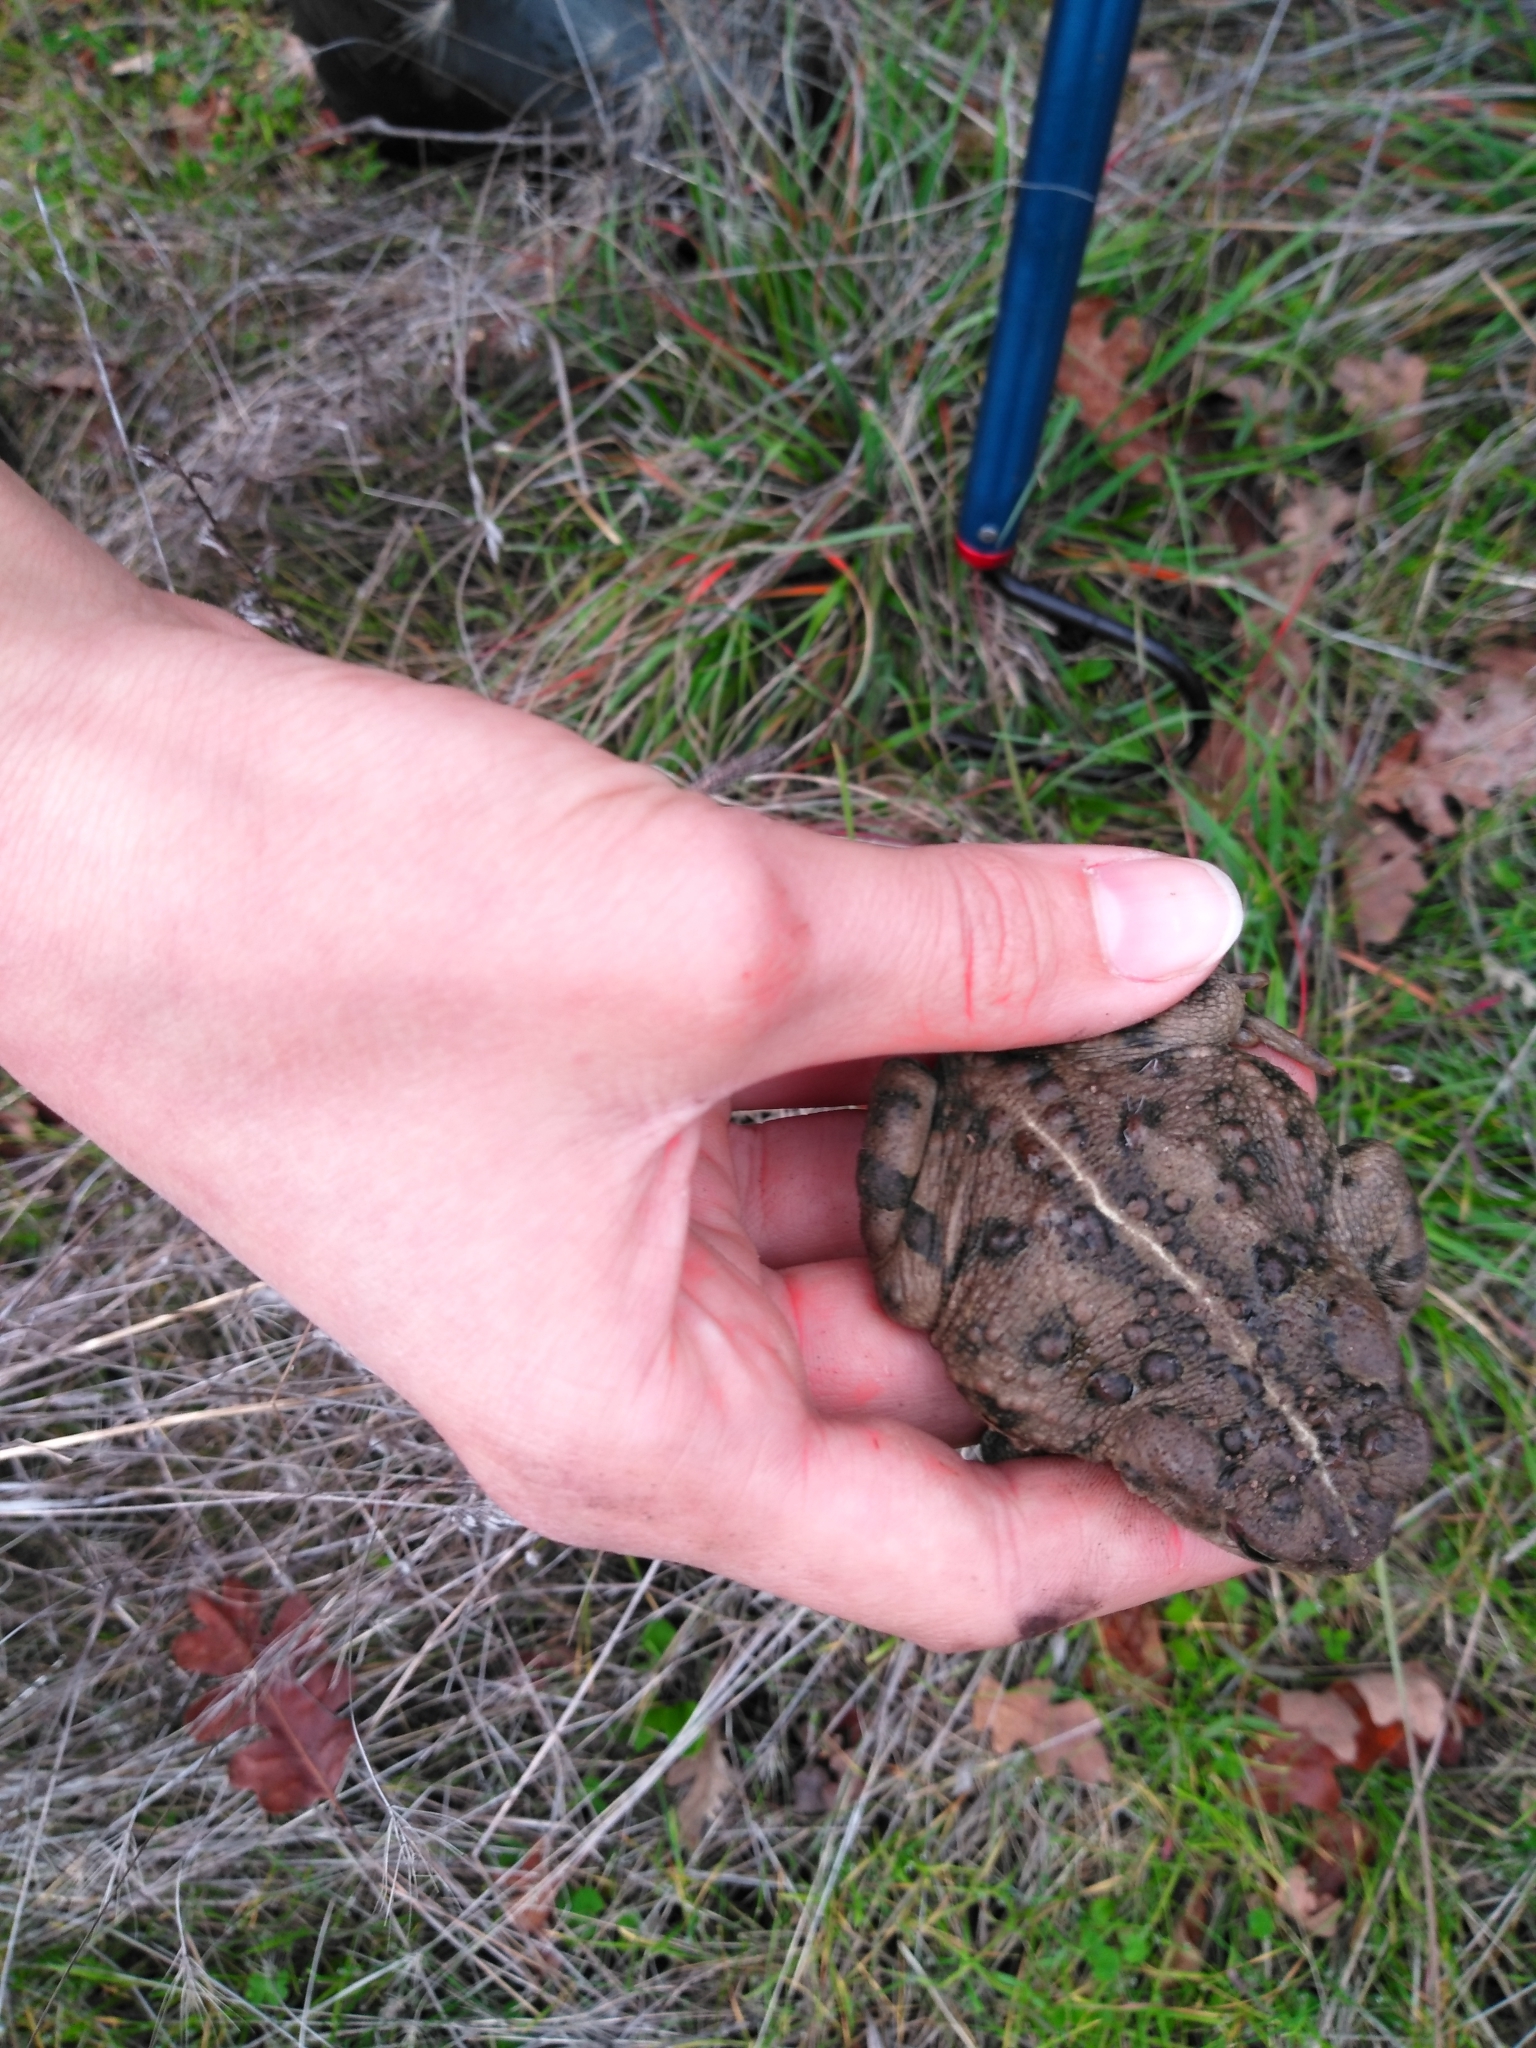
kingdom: Animalia
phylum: Chordata
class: Amphibia
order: Anura
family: Bufonidae
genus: Anaxyrus
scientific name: Anaxyrus boreas
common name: Western toad
